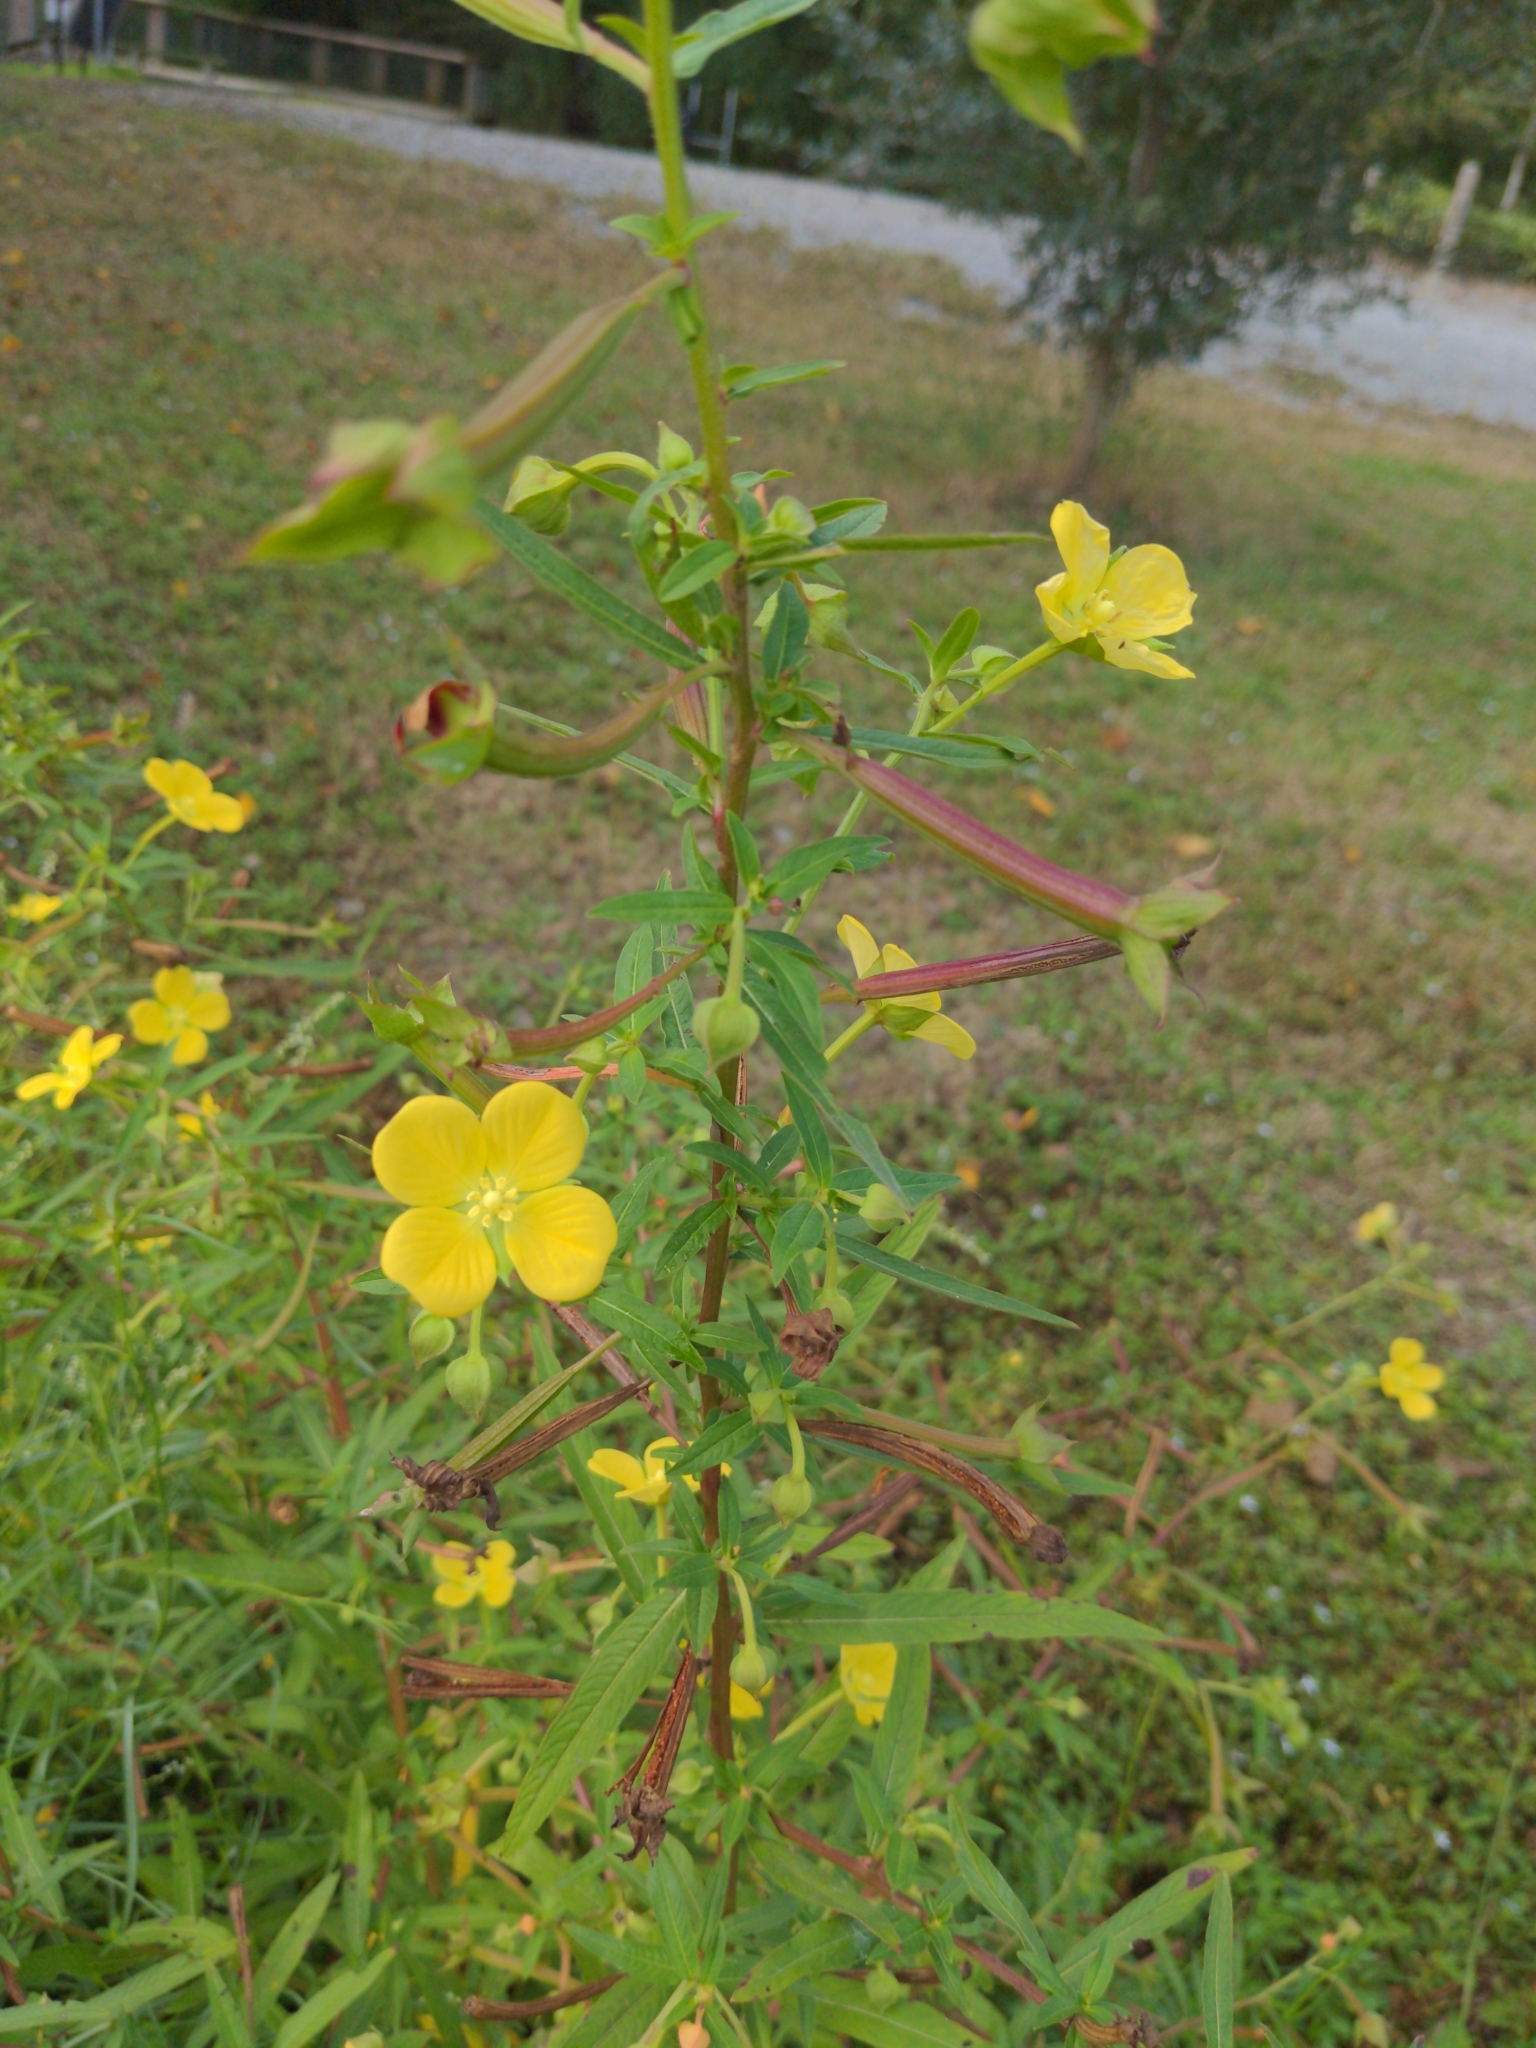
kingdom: Plantae
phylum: Tracheophyta
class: Magnoliopsida
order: Myrtales
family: Onagraceae
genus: Ludwigia
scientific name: Ludwigia octovalvis
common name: Water-primrose
